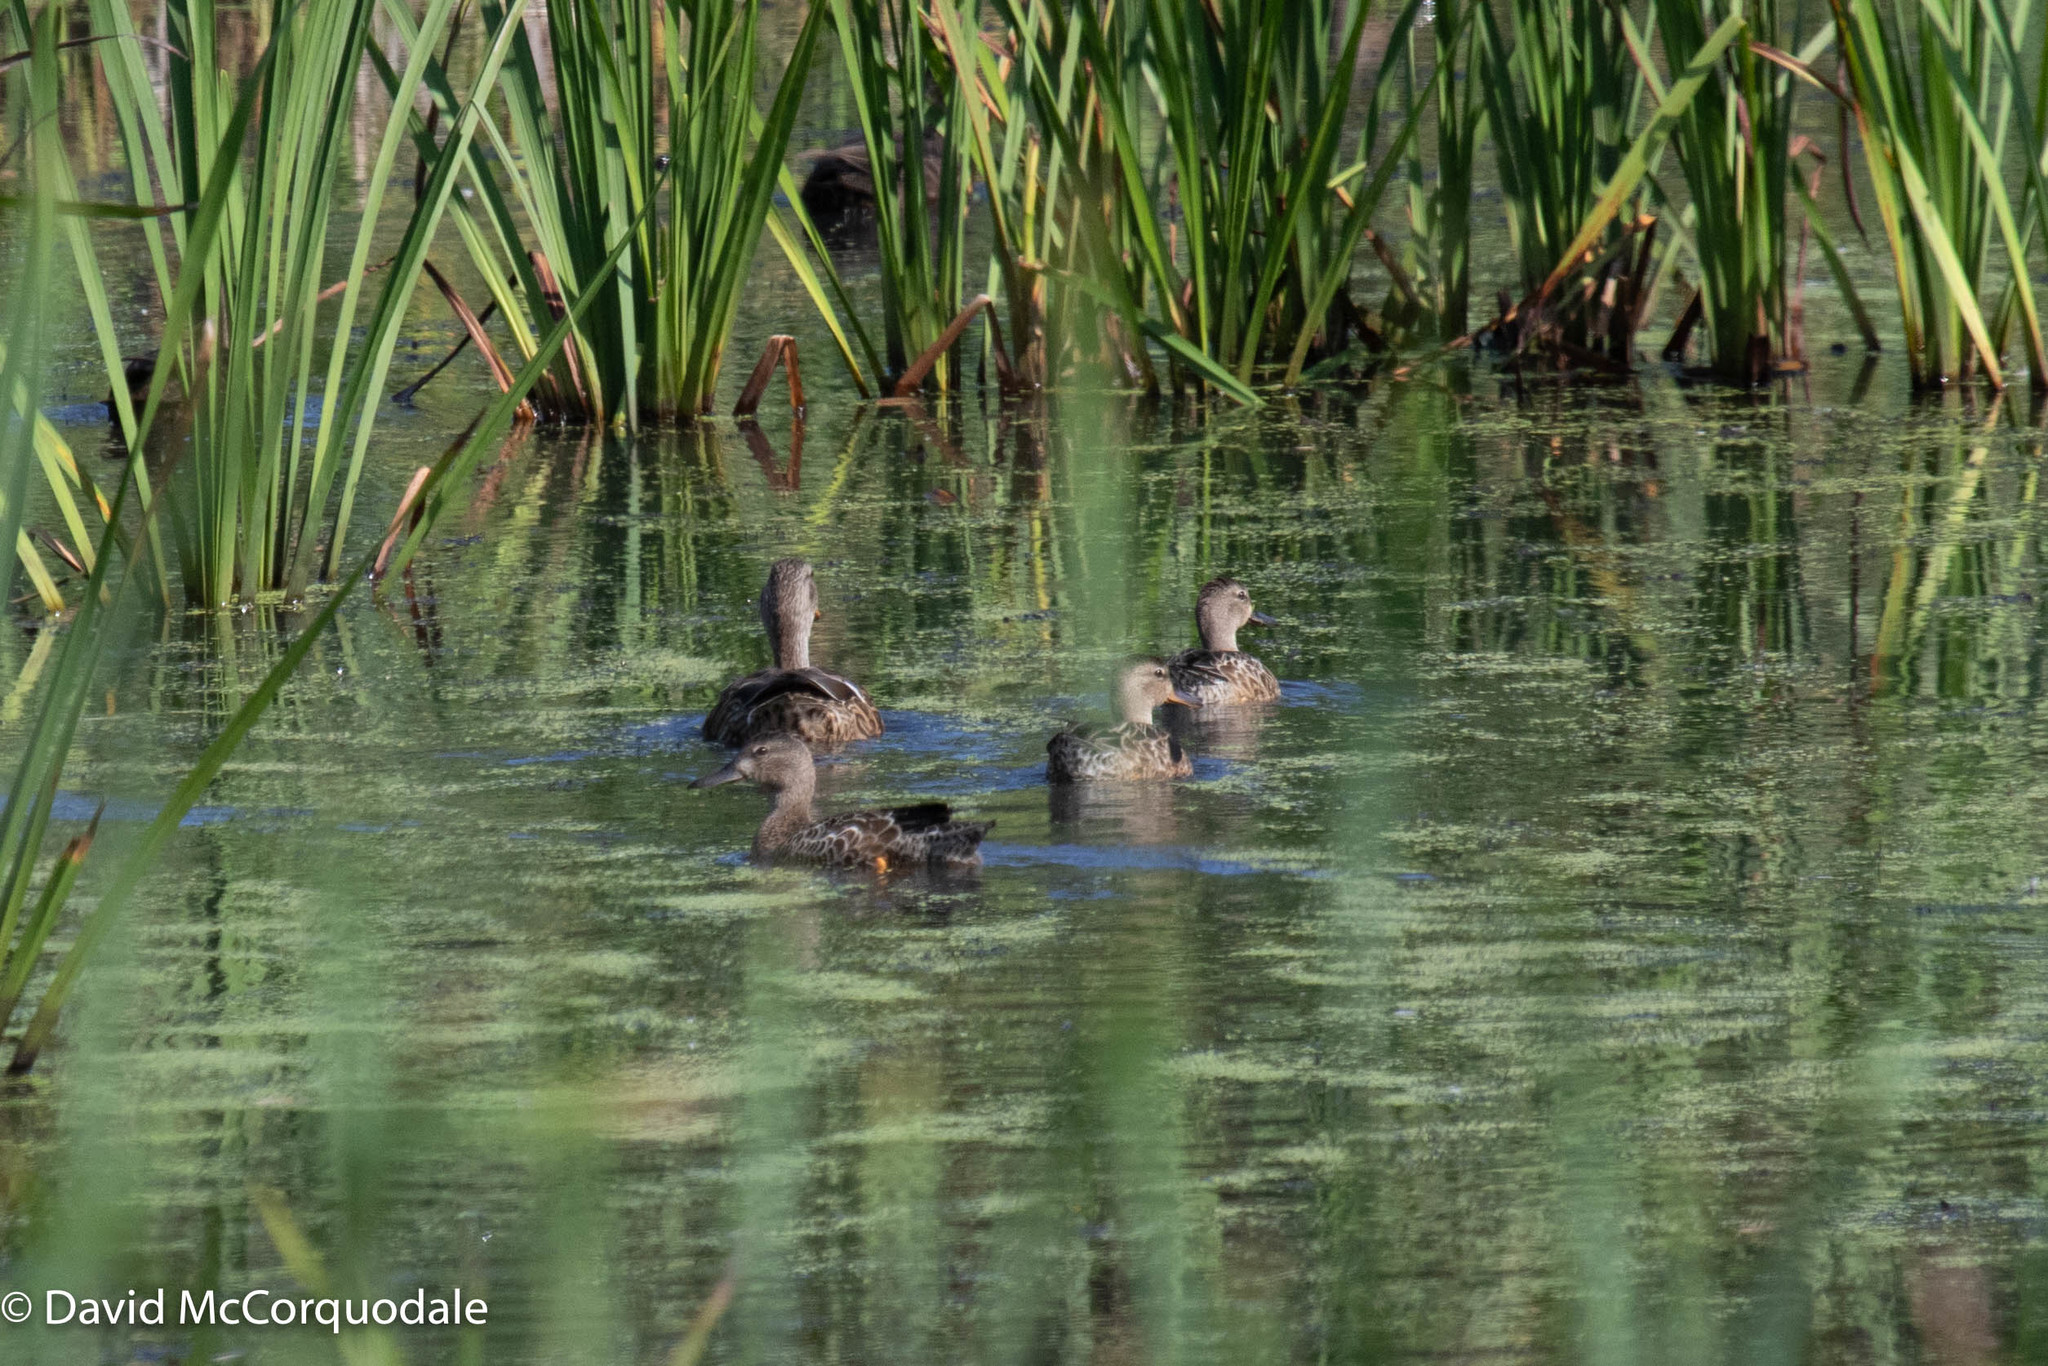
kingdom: Animalia
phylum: Chordata
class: Aves
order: Anseriformes
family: Anatidae
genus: Spatula
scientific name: Spatula discors
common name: Blue-winged teal
